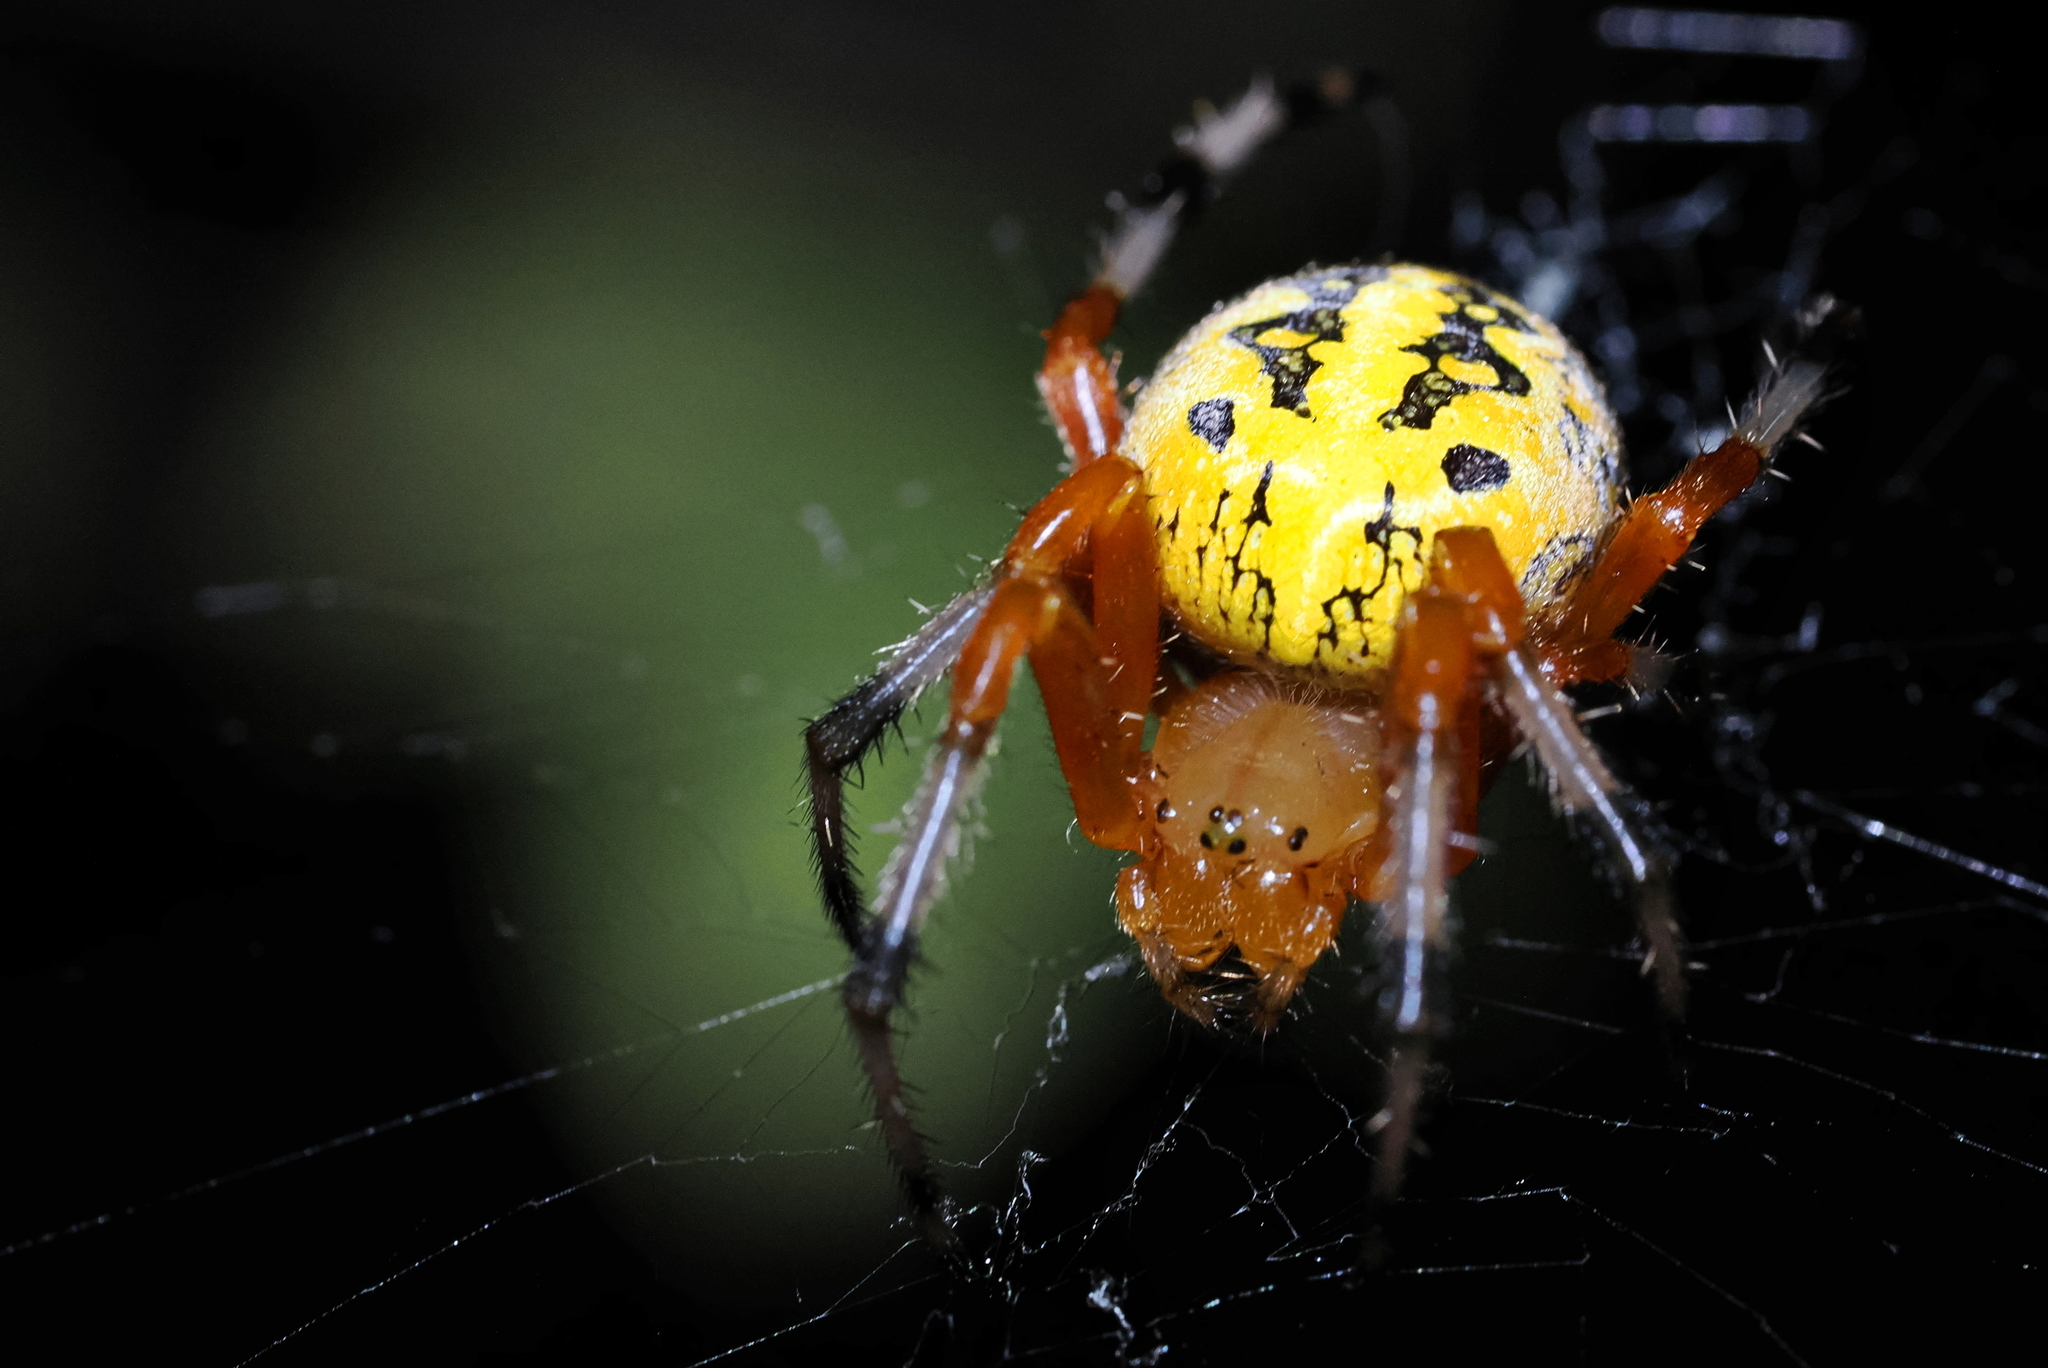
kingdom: Animalia
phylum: Arthropoda
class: Arachnida
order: Araneae
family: Araneidae
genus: Araneus
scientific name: Araneus marmoreus
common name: Marbled orbweaver
